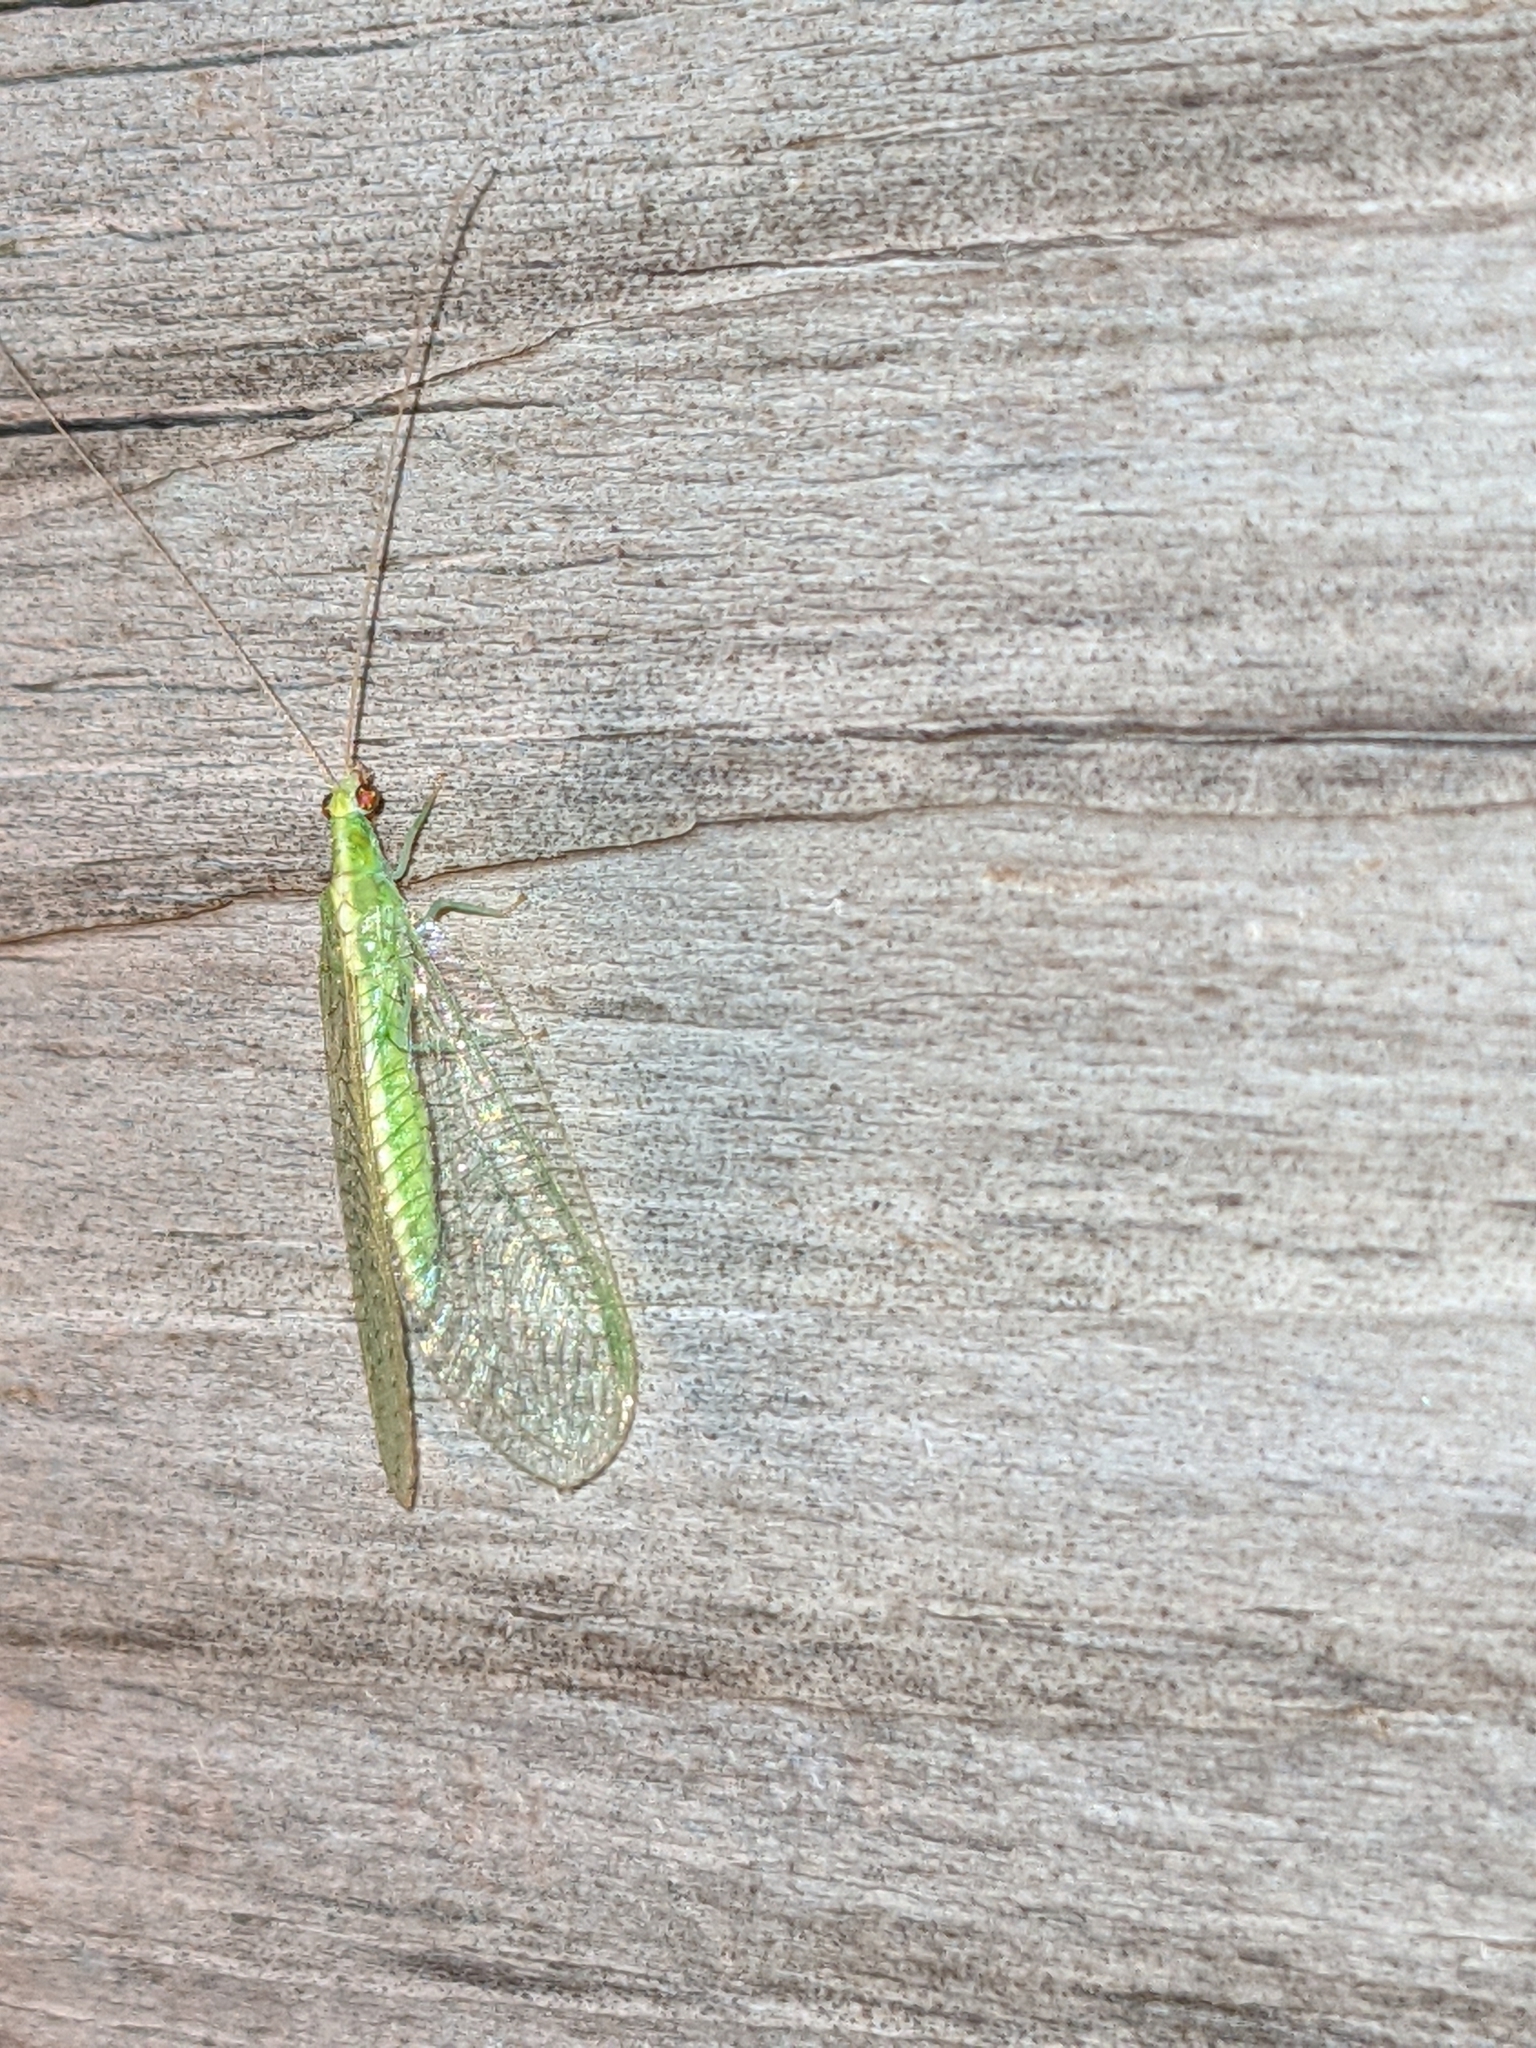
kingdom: Animalia
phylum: Arthropoda
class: Insecta
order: Neuroptera
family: Chrysopidae
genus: Chrysoperla
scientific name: Chrysoperla rufilabris
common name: Red-lipped green lacewing
